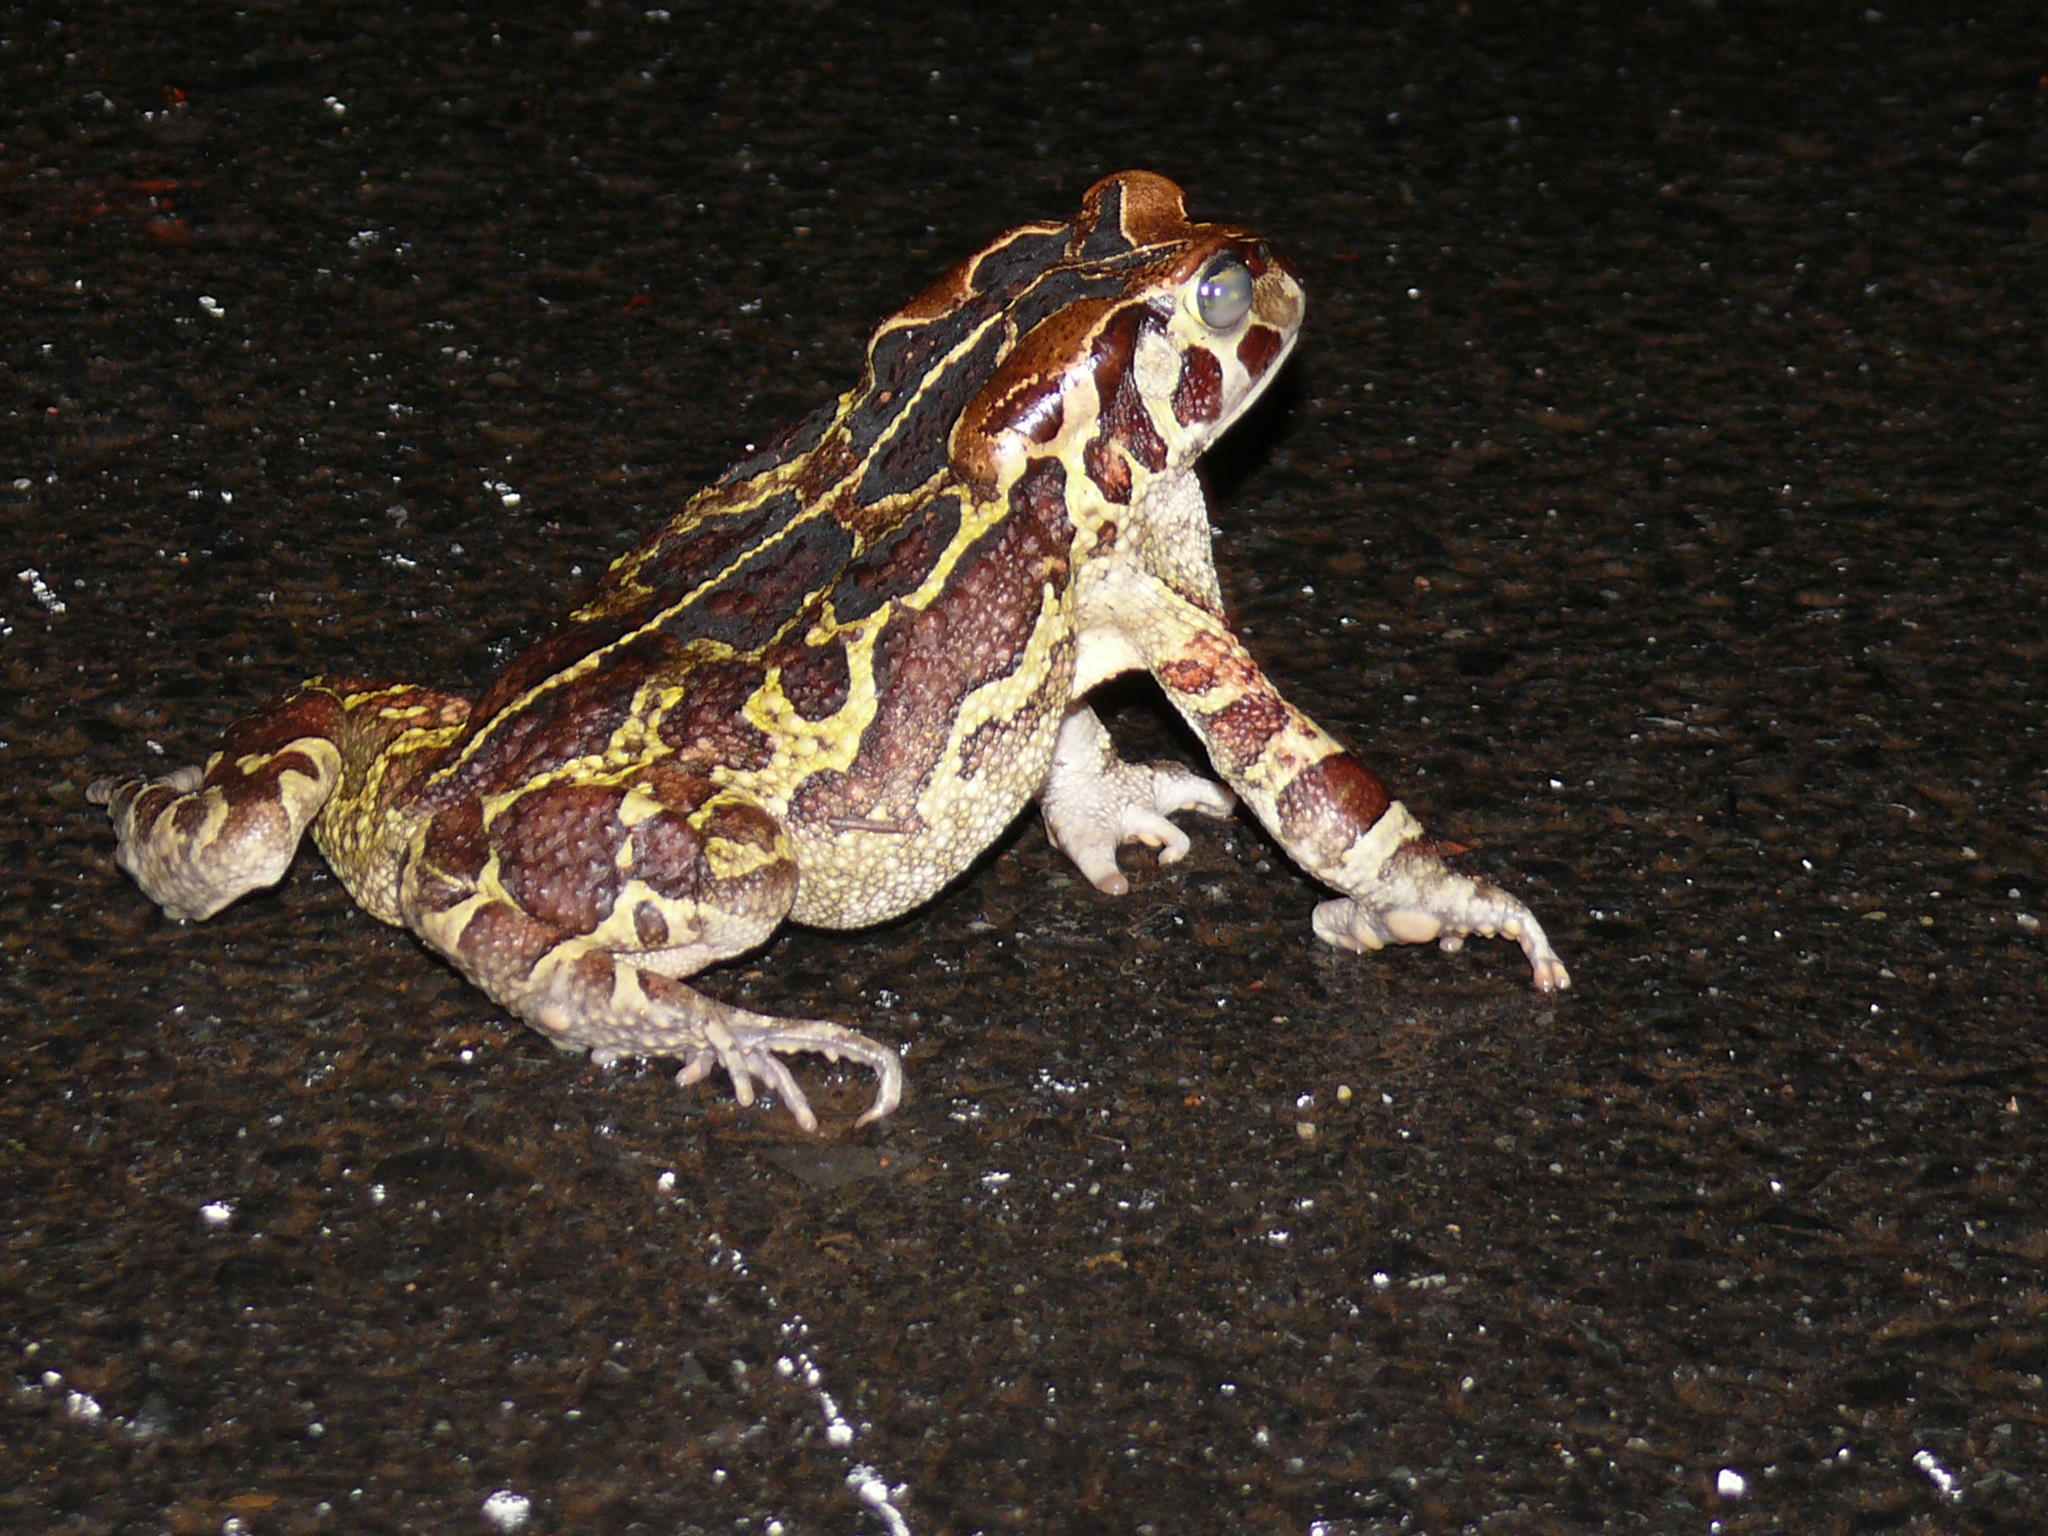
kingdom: Animalia
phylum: Chordata
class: Amphibia
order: Anura
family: Bufonidae
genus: Sclerophrys
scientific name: Sclerophrys pantherina
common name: Panther toad
